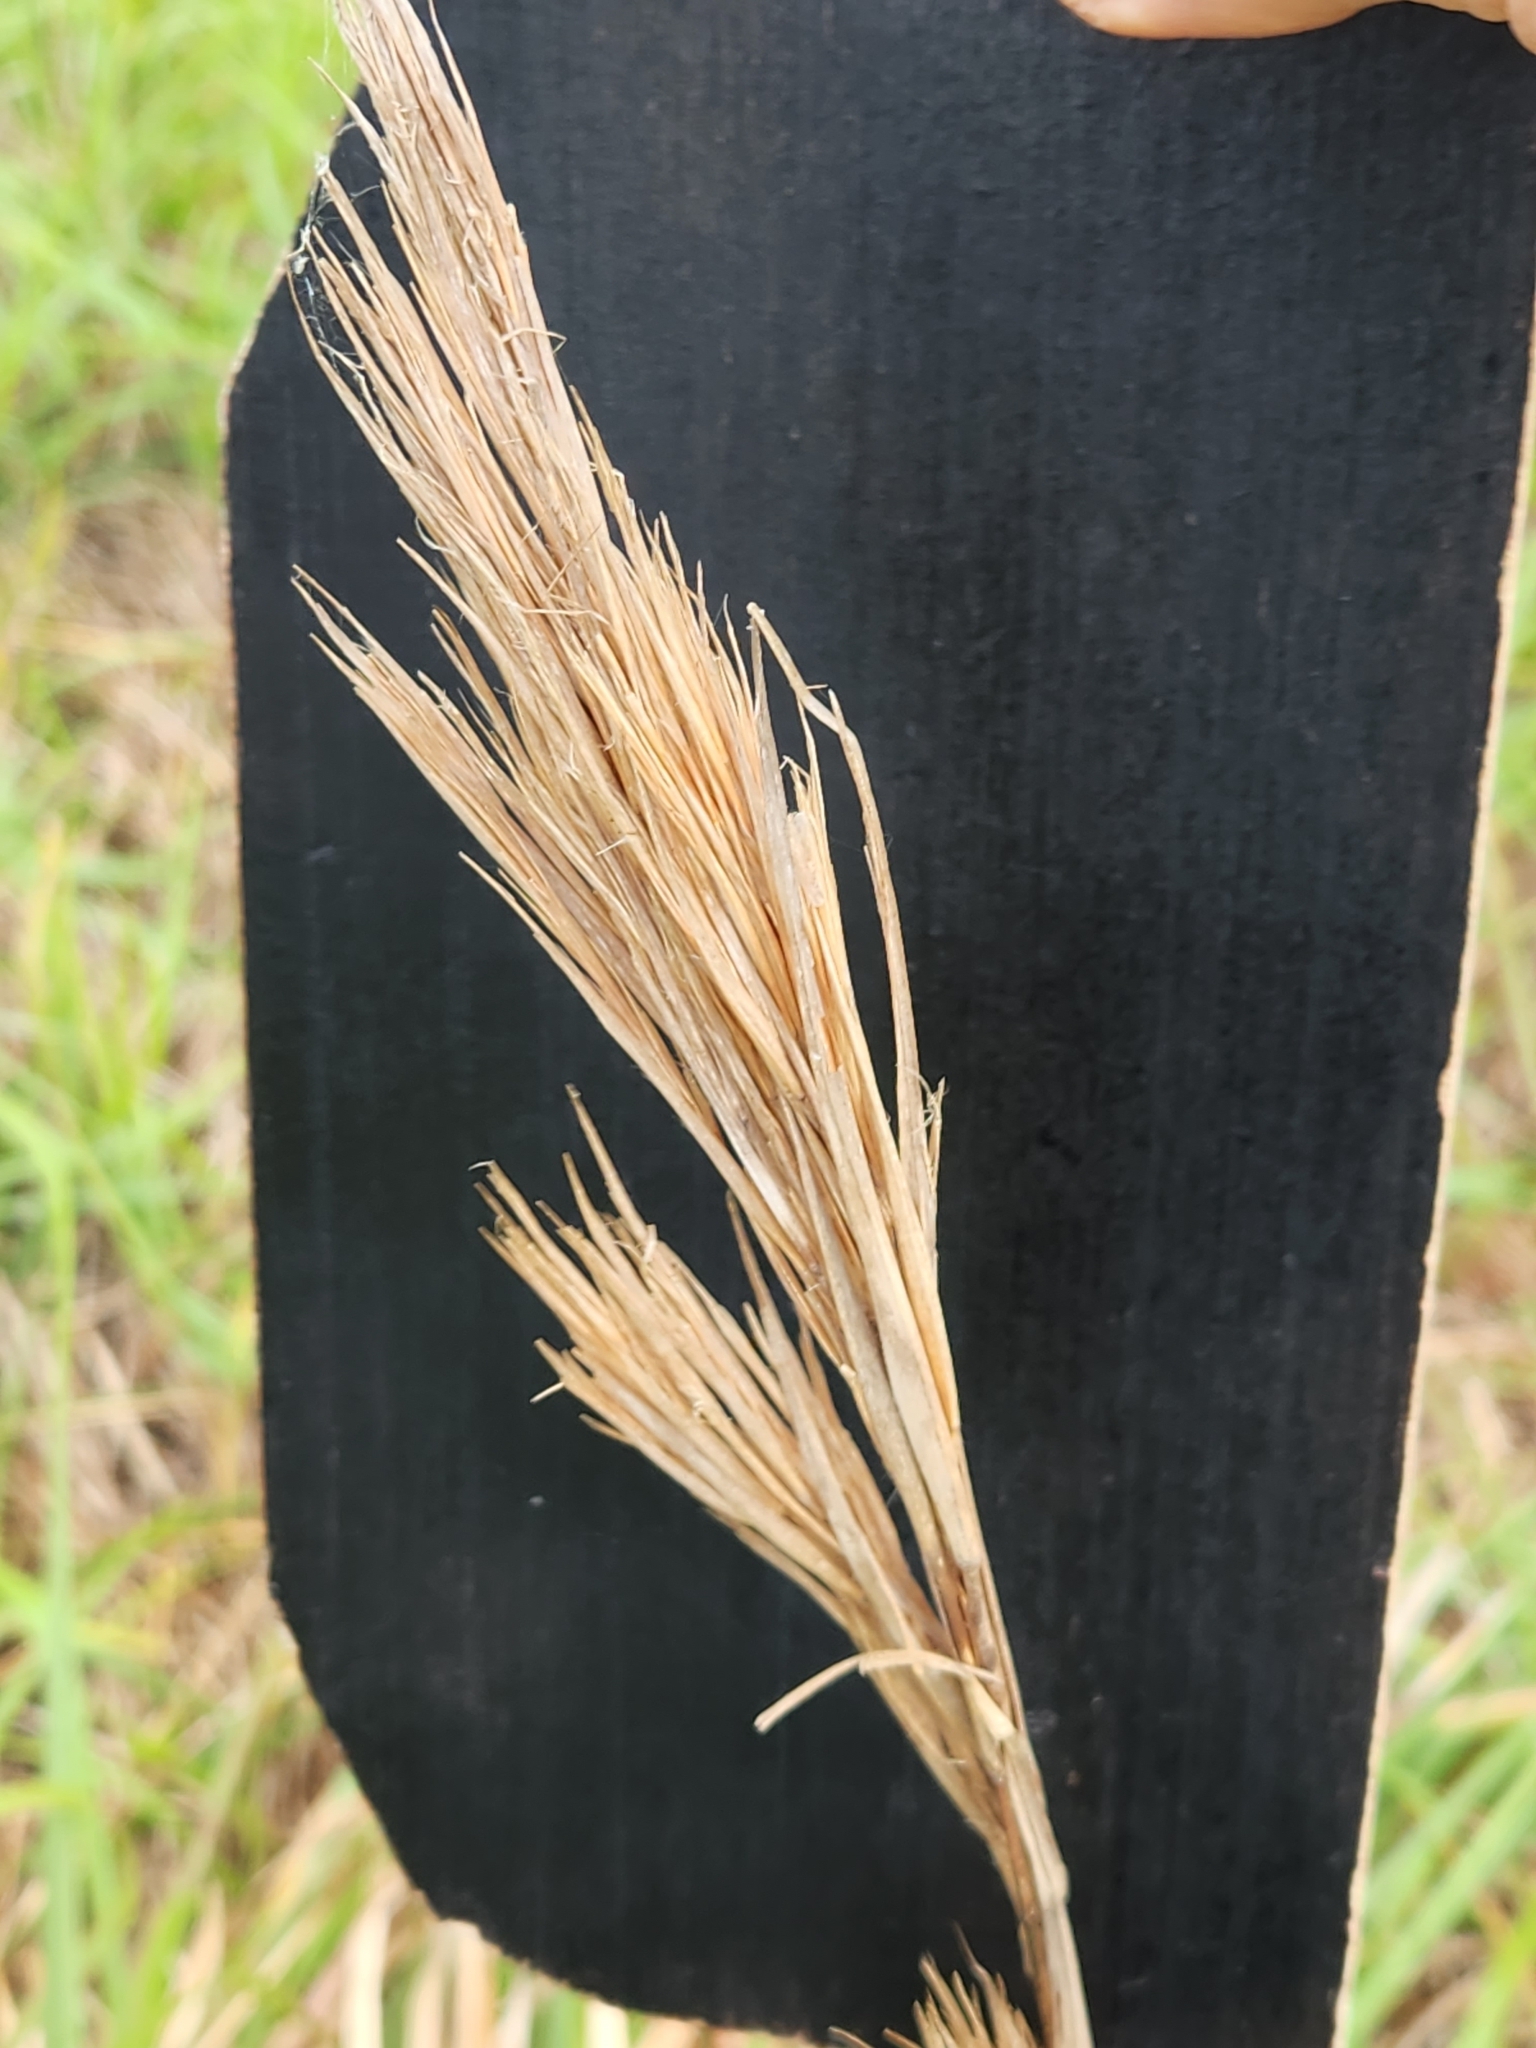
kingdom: Plantae
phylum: Tracheophyta
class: Liliopsida
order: Poales
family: Poaceae
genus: Andropogon
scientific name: Andropogon tenuispatheus
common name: Bushy bluestem
